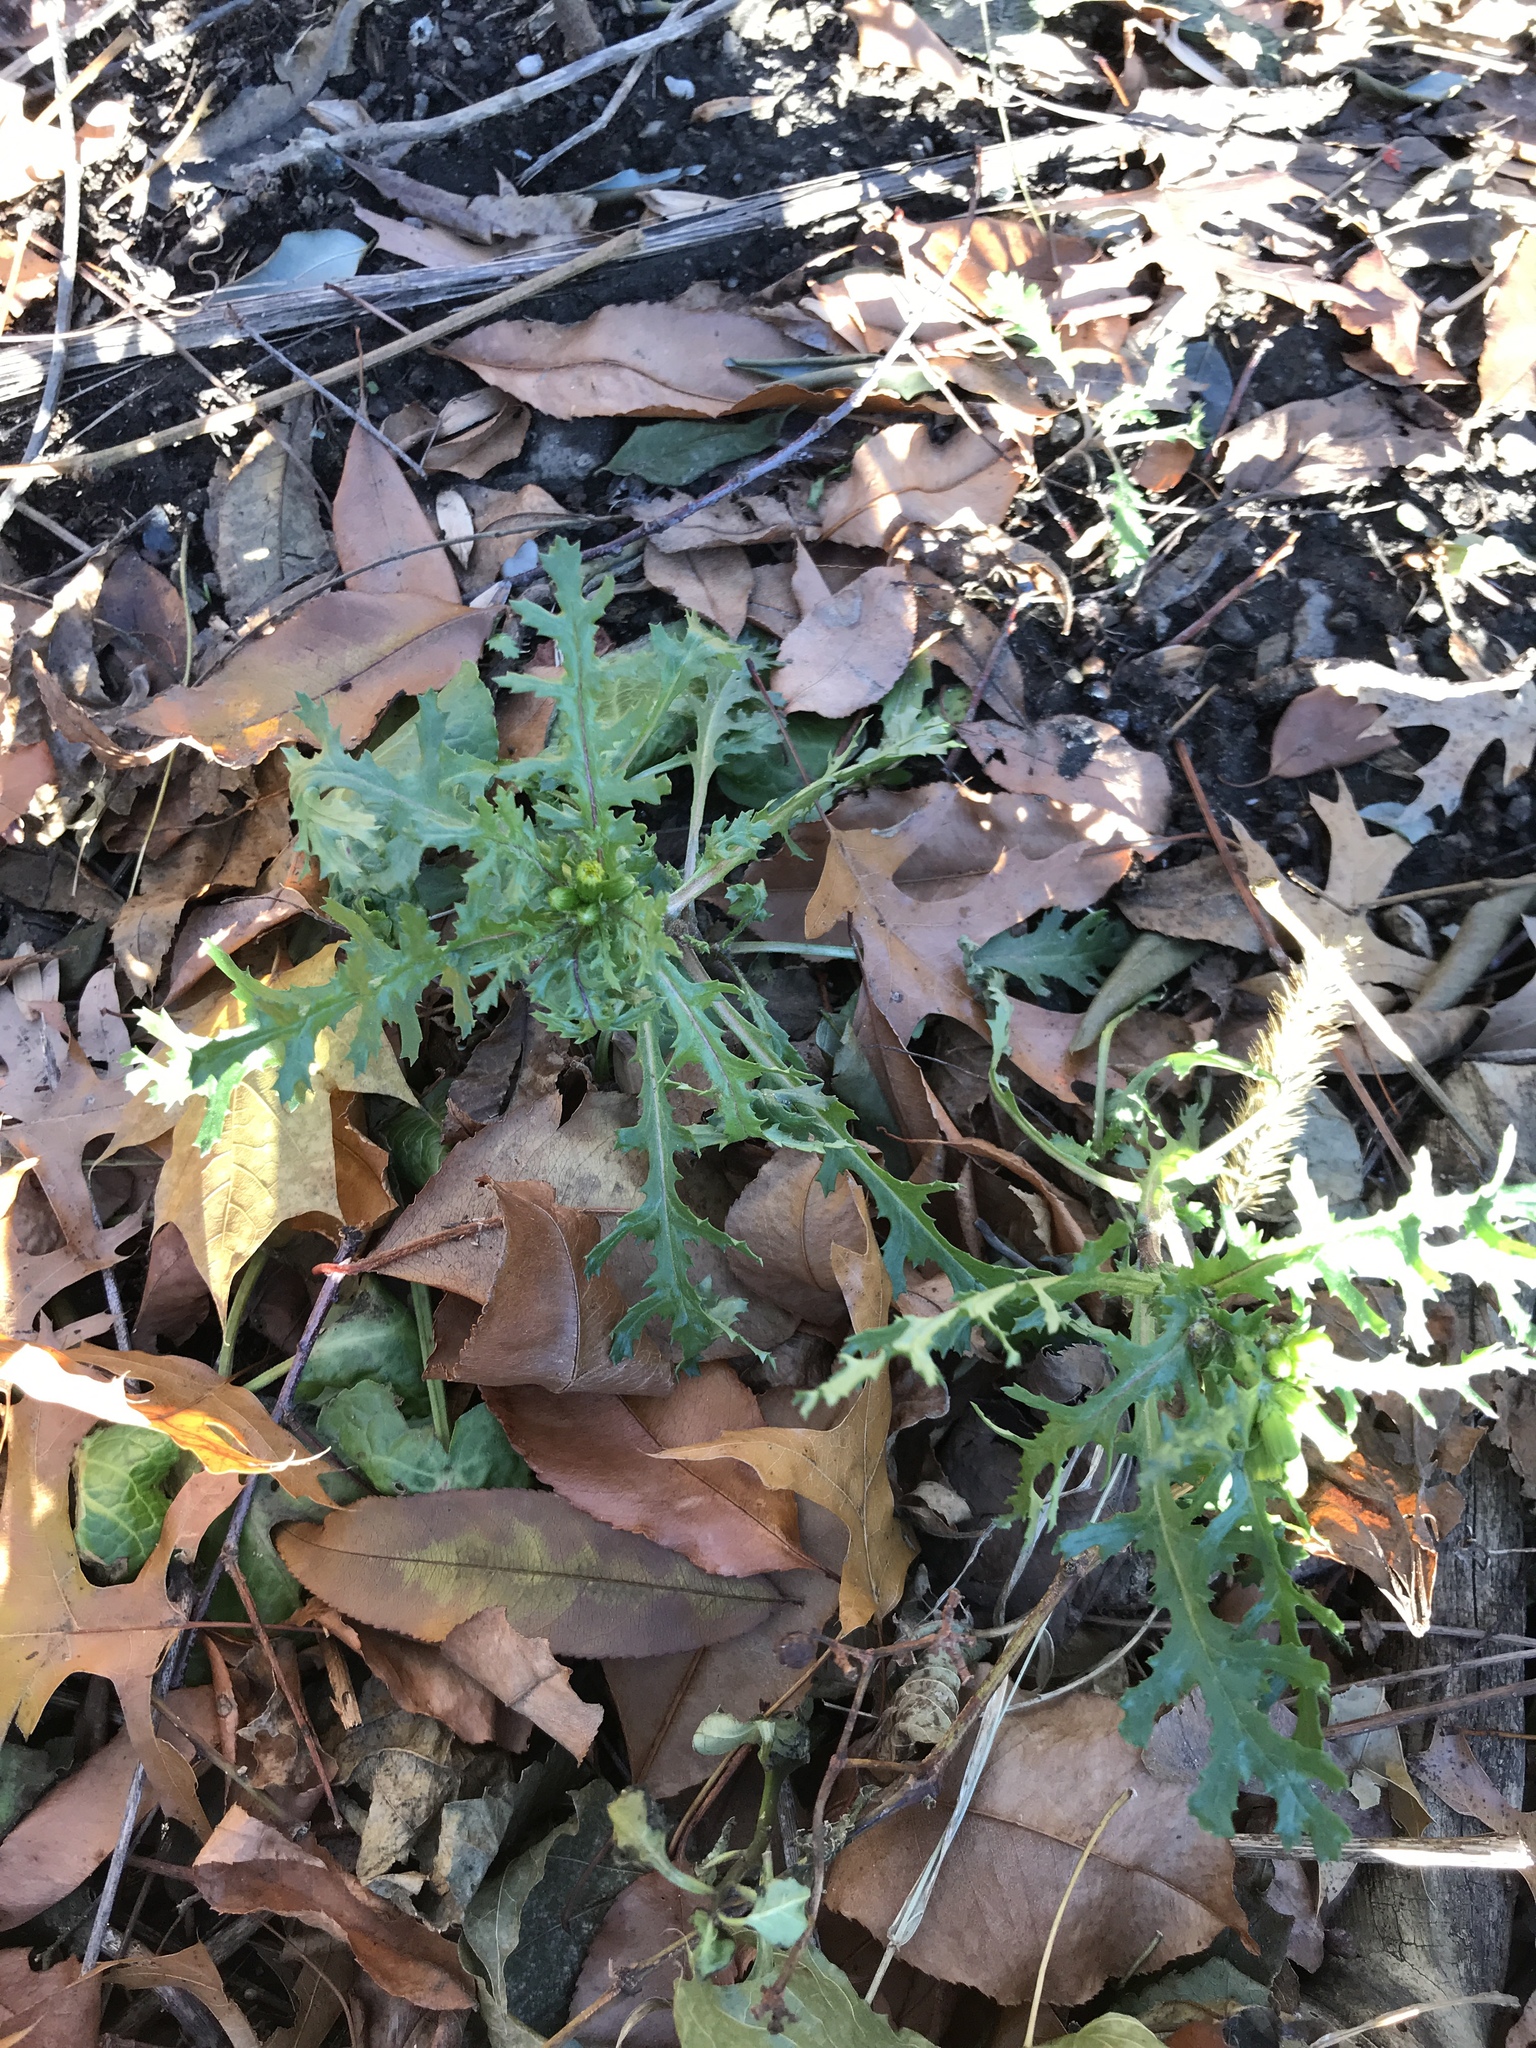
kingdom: Plantae
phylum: Tracheophyta
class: Magnoliopsida
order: Asterales
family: Asteraceae
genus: Senecio
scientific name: Senecio vulgaris
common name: Old-man-in-the-spring
